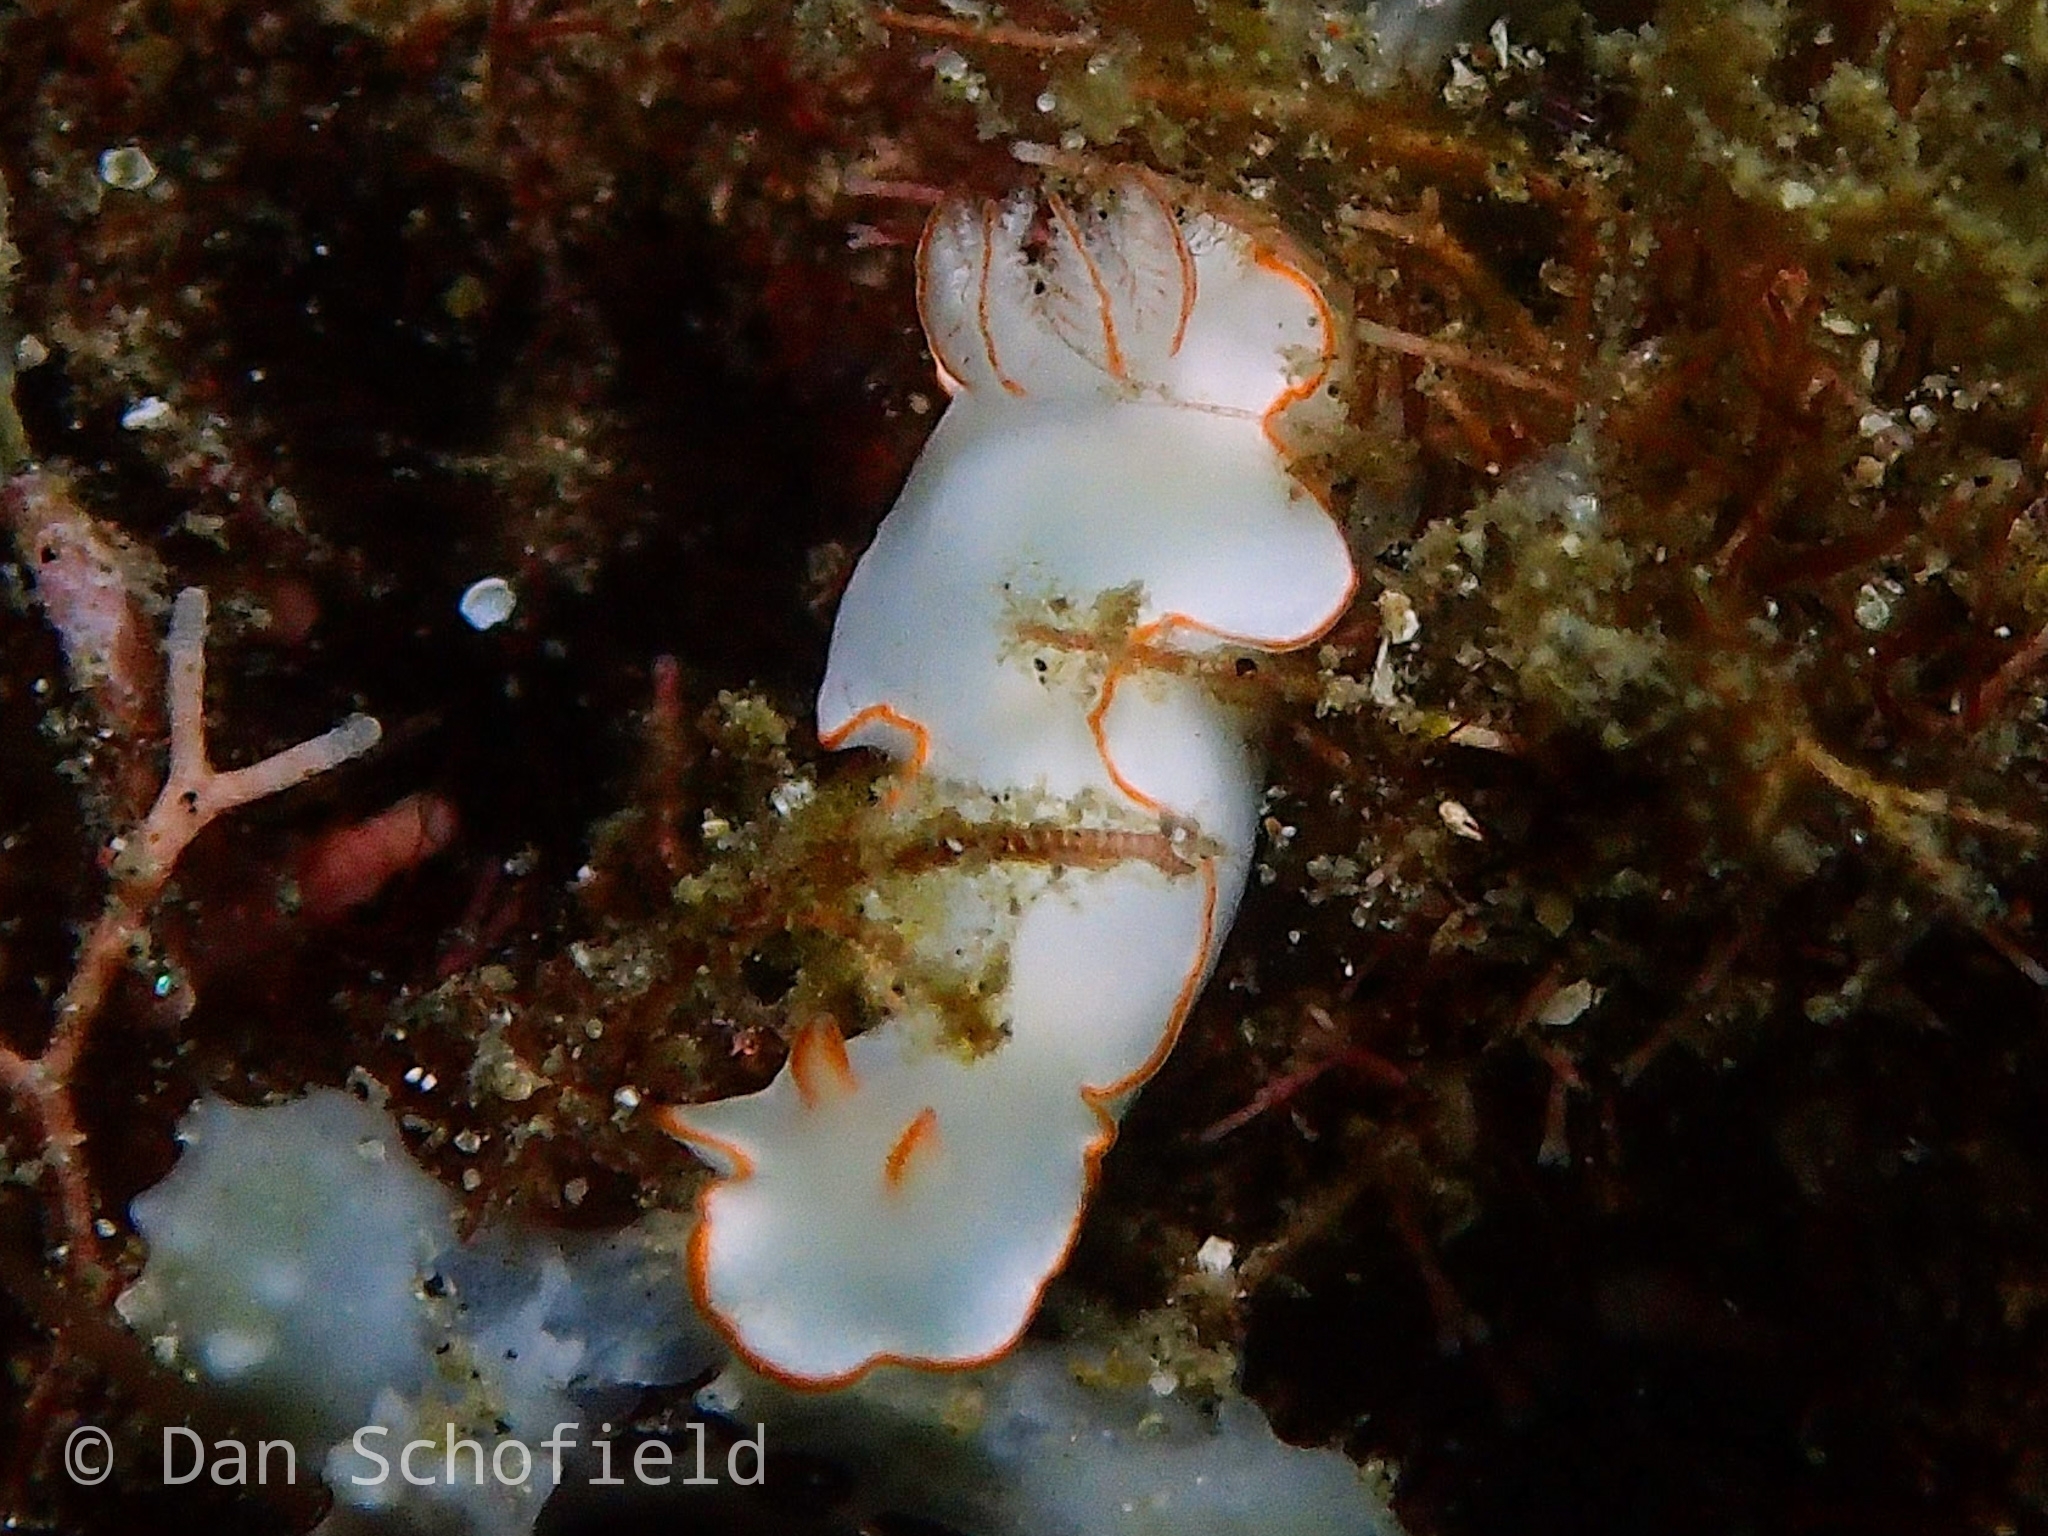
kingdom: Animalia
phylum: Mollusca
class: Gastropoda
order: Nudibranchia
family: Chromodorididae
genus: Thorunna
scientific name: Thorunna furtiva
